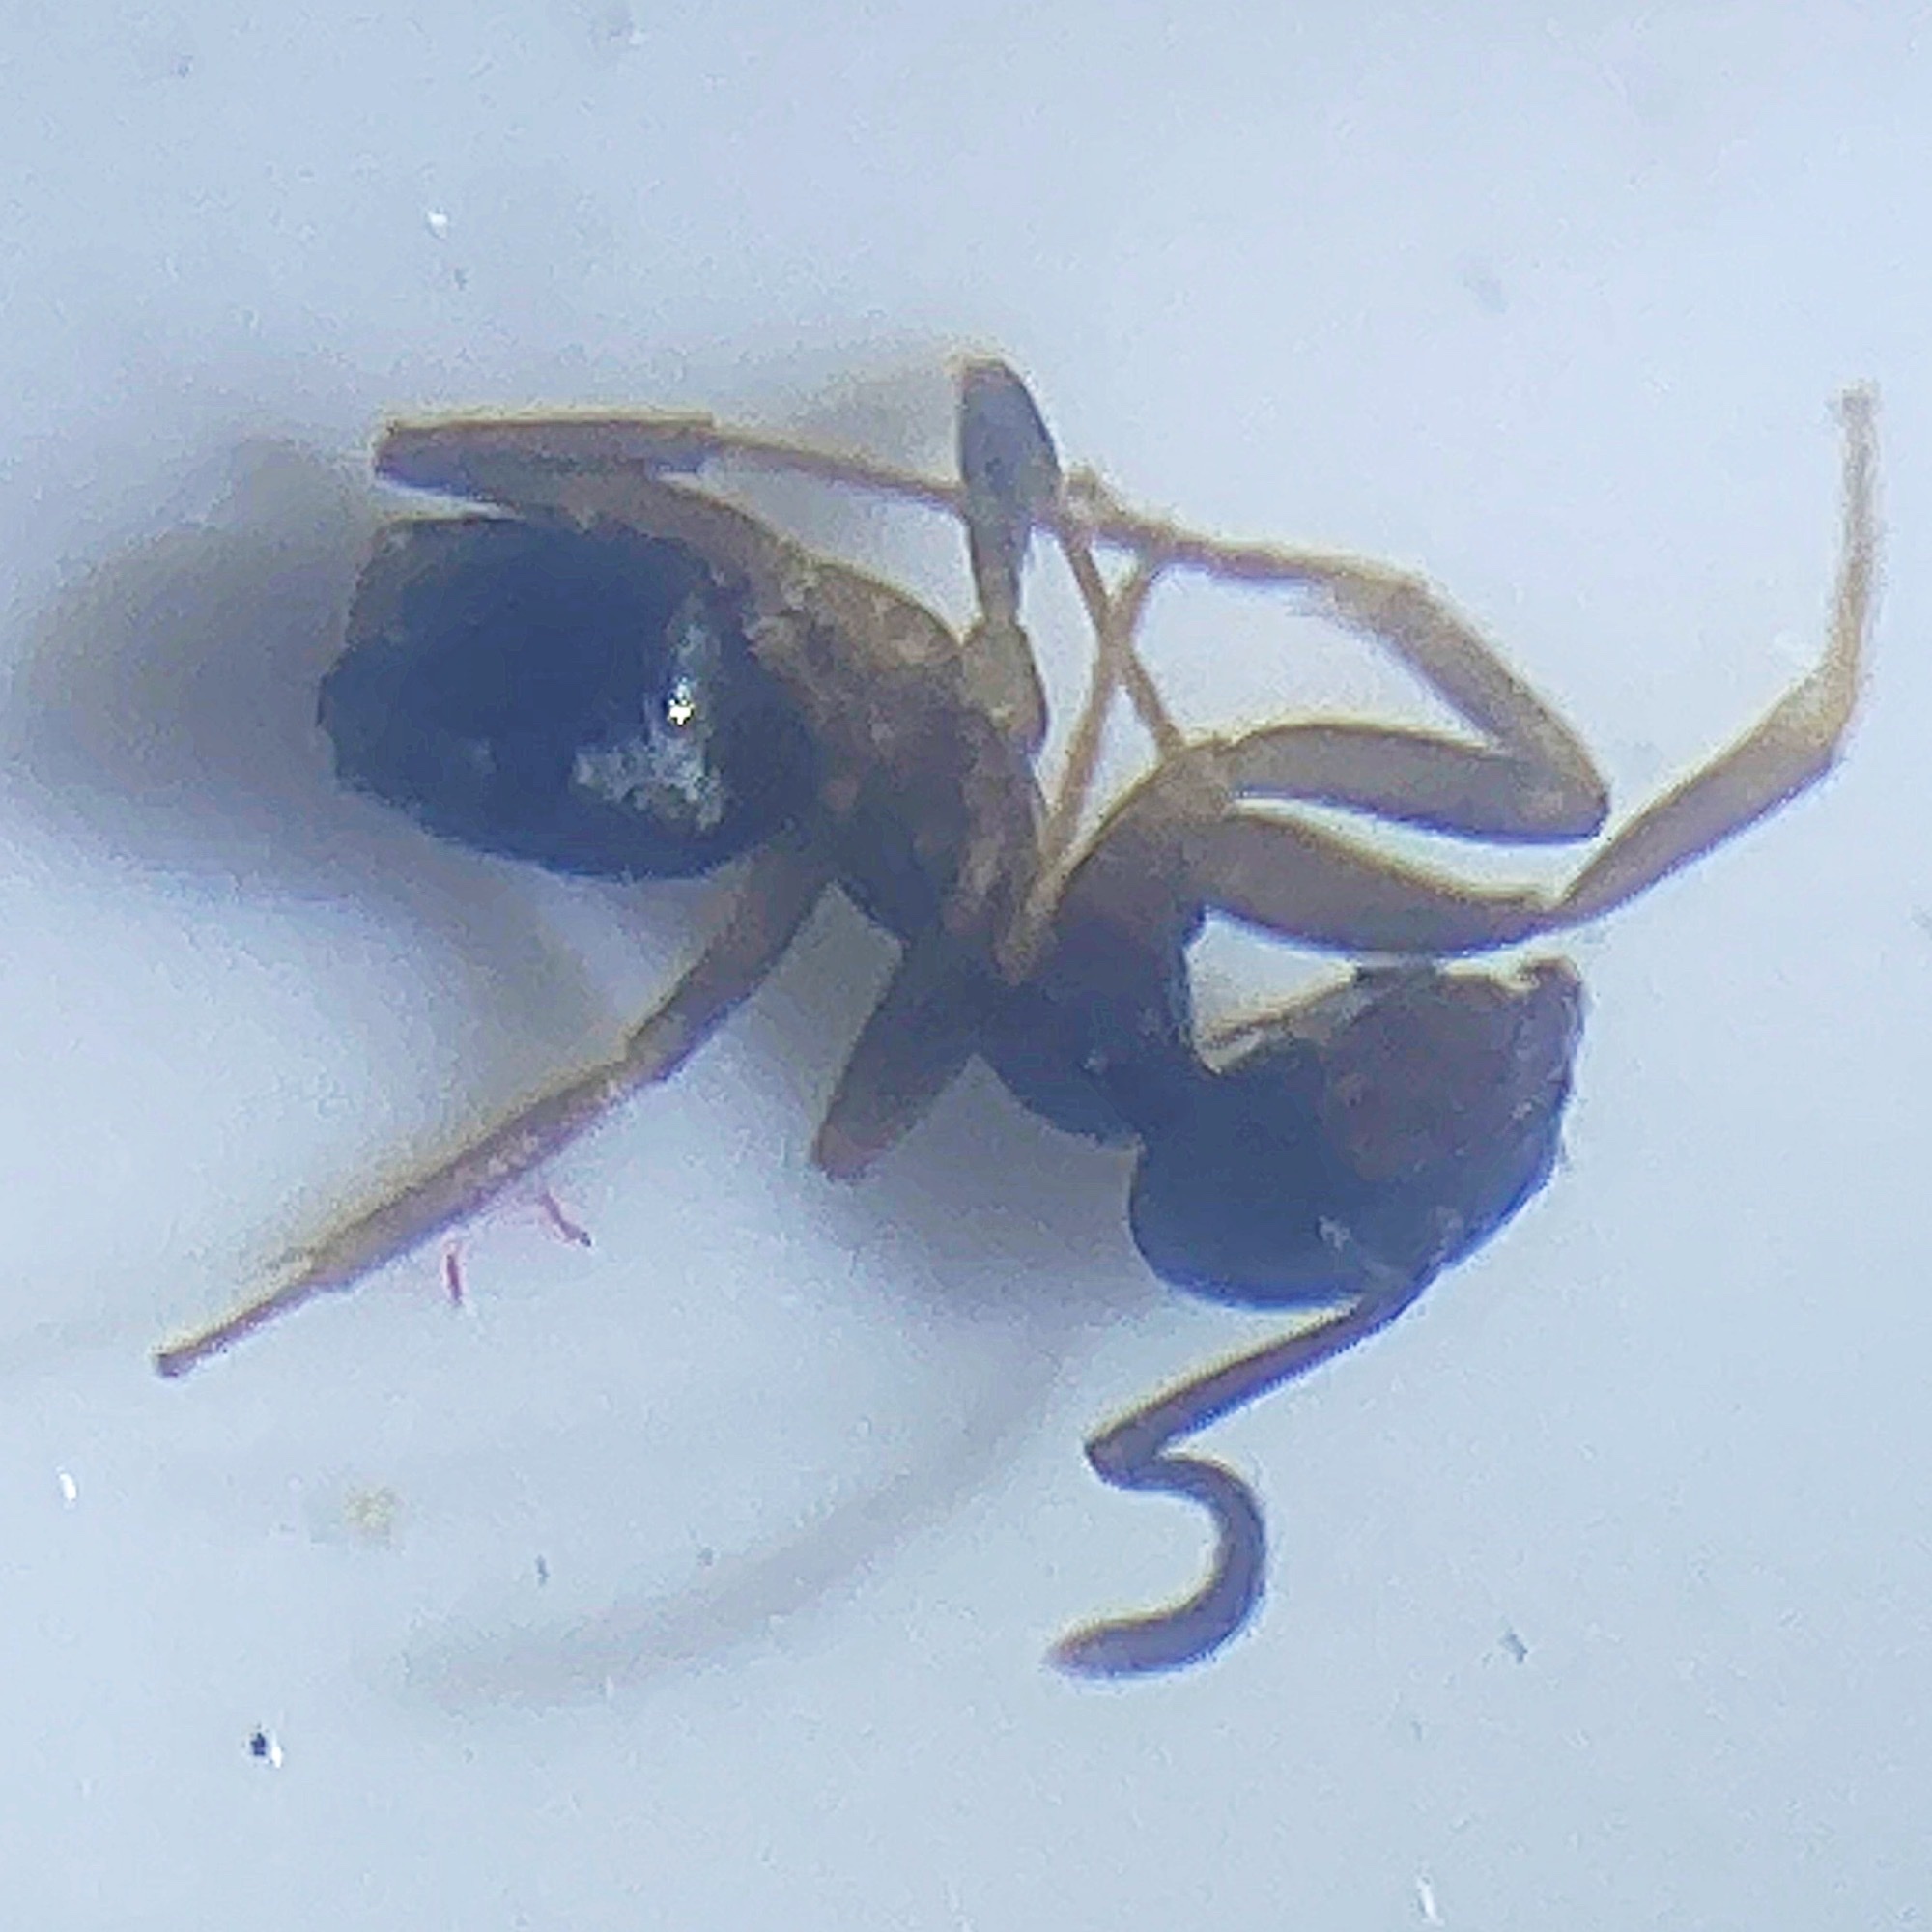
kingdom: Animalia
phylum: Arthropoda
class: Insecta
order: Hymenoptera
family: Formicidae
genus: Tapinoma
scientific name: Tapinoma sessile
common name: Odorous house ant
